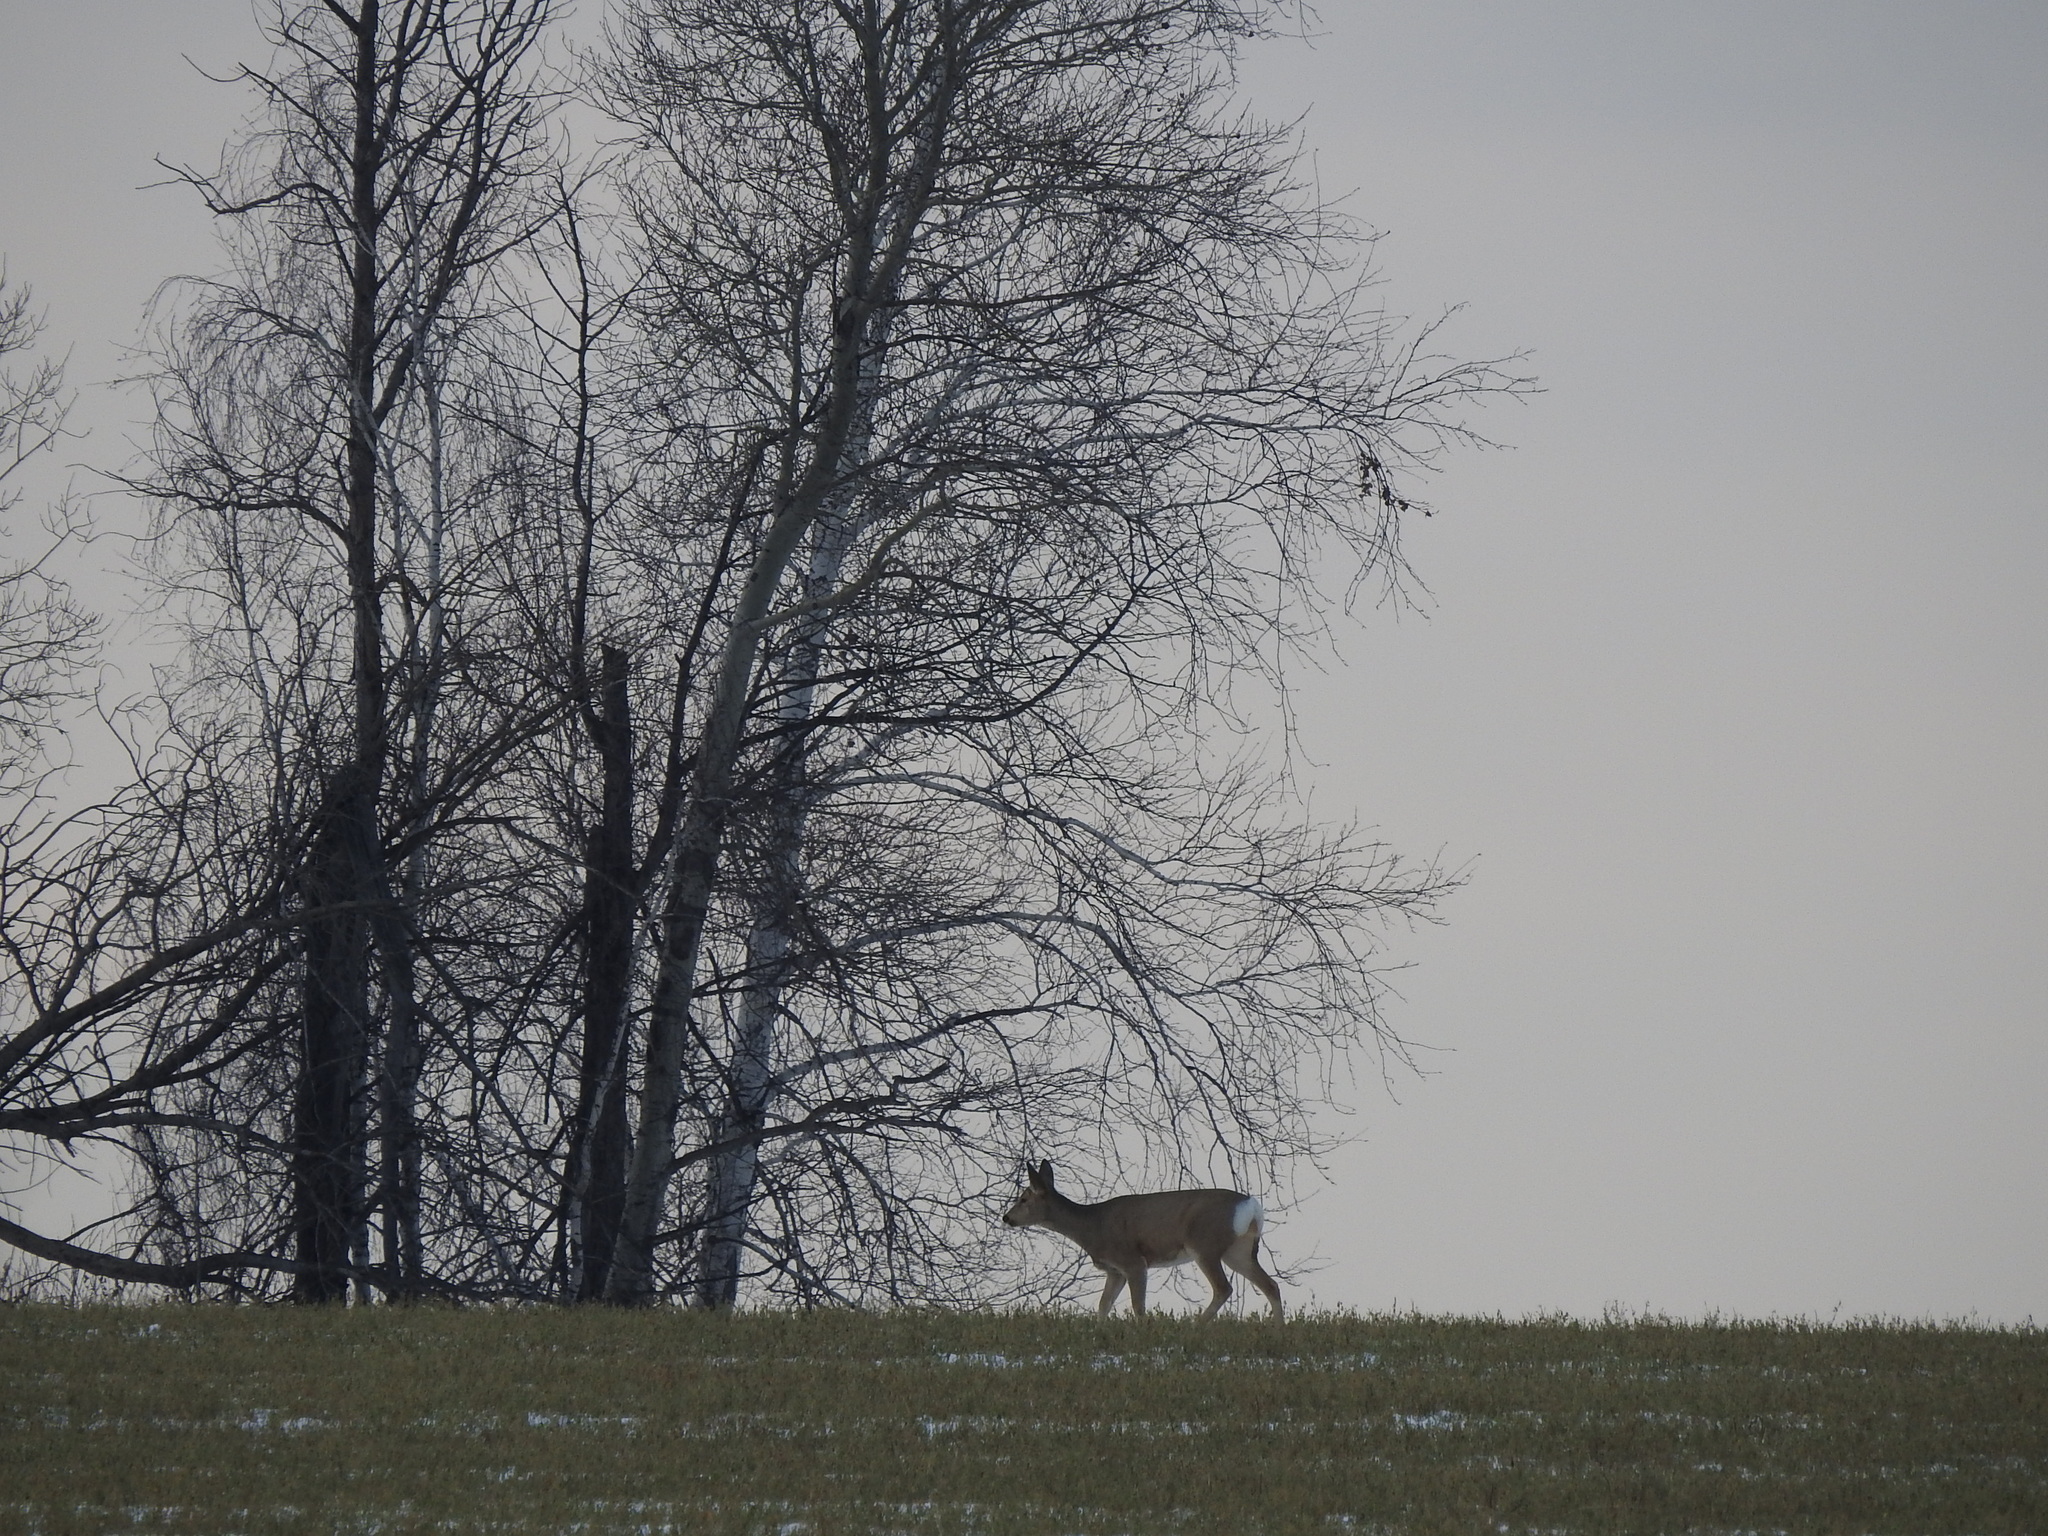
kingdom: Animalia
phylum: Chordata
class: Mammalia
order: Artiodactyla
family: Cervidae
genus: Capreolus
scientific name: Capreolus pygargus
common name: Siberian roe
